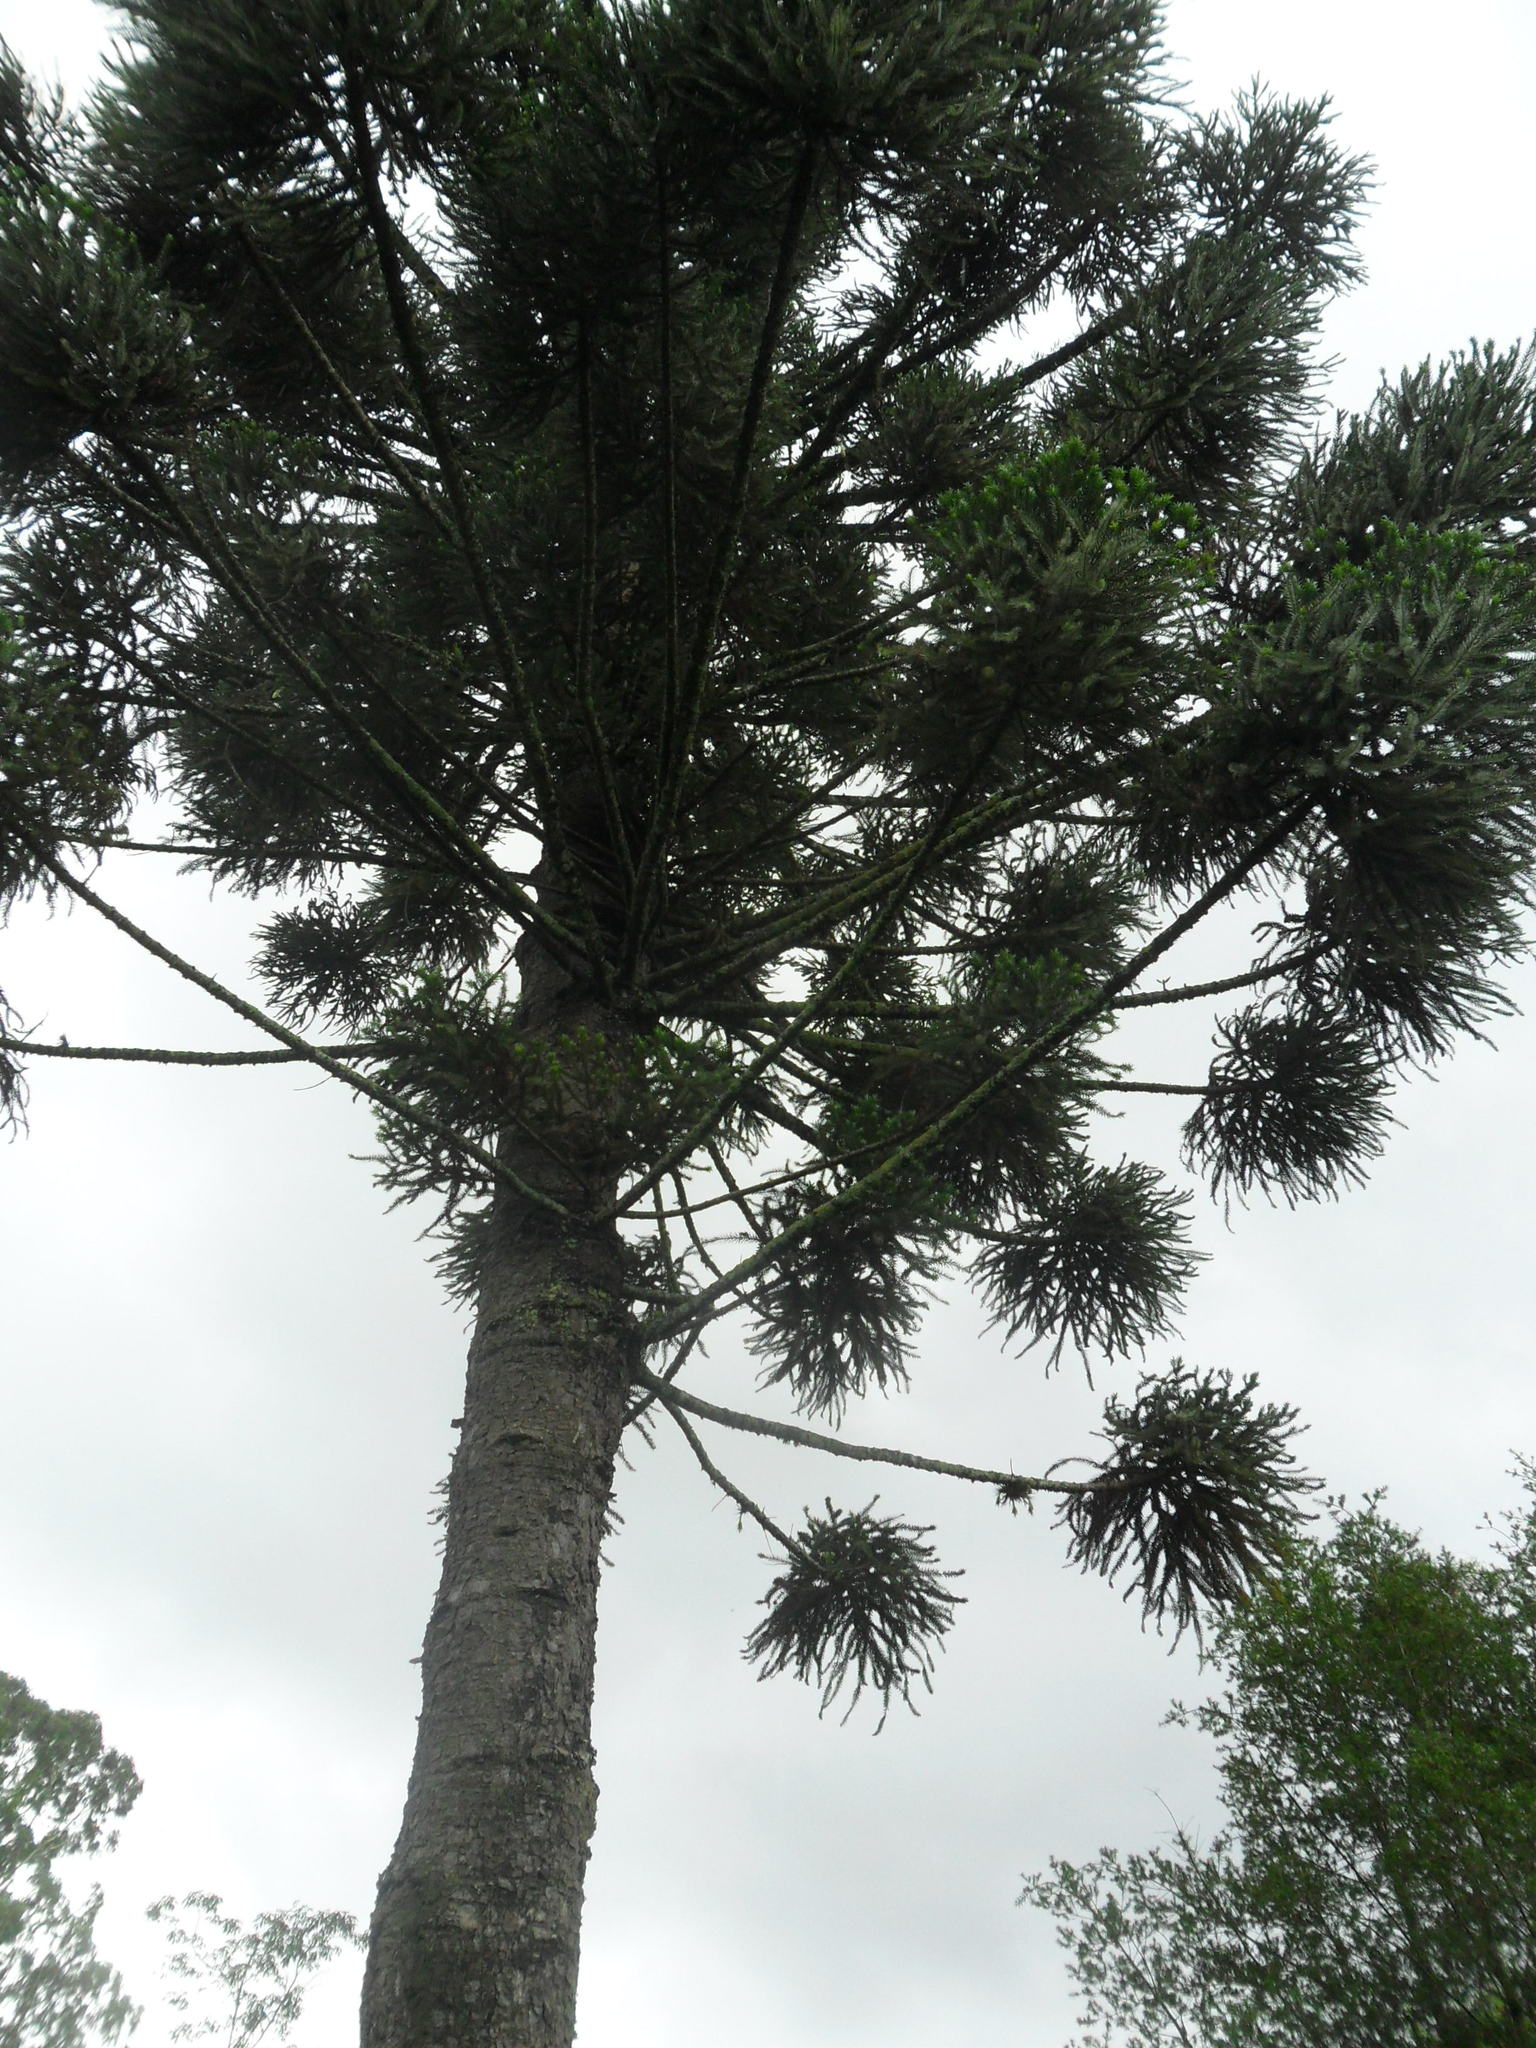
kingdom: Plantae
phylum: Tracheophyta
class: Pinopsida
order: Pinales
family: Araucariaceae
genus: Araucaria
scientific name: Araucaria angustifolia
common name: Candelabra tree
